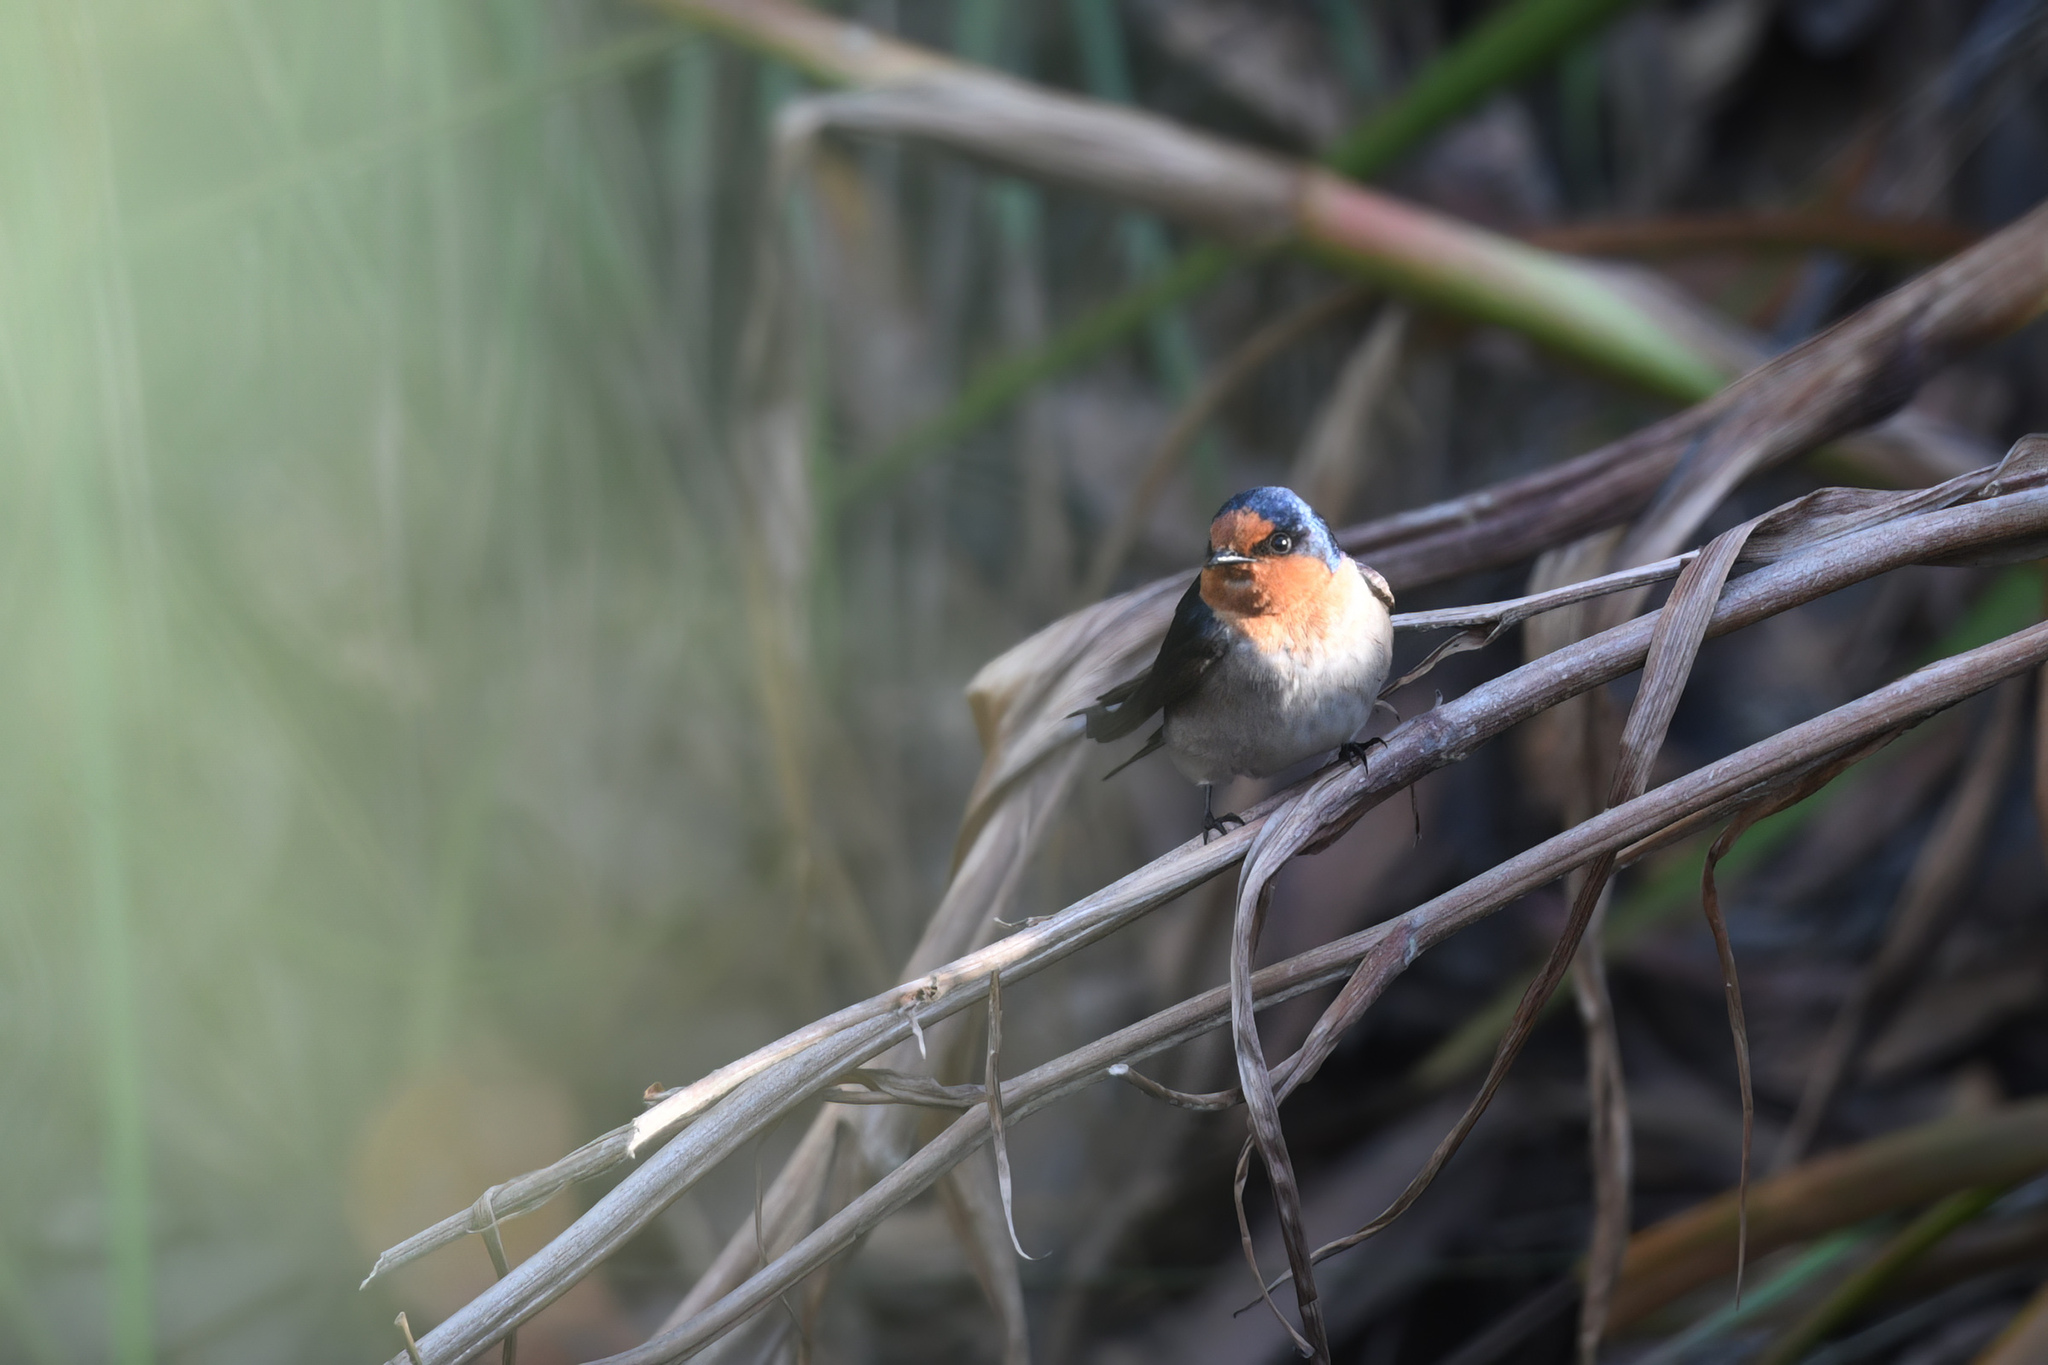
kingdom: Animalia
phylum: Chordata
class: Aves
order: Passeriformes
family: Hirundinidae
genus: Hirundo
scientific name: Hirundo neoxena
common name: Welcome swallow
